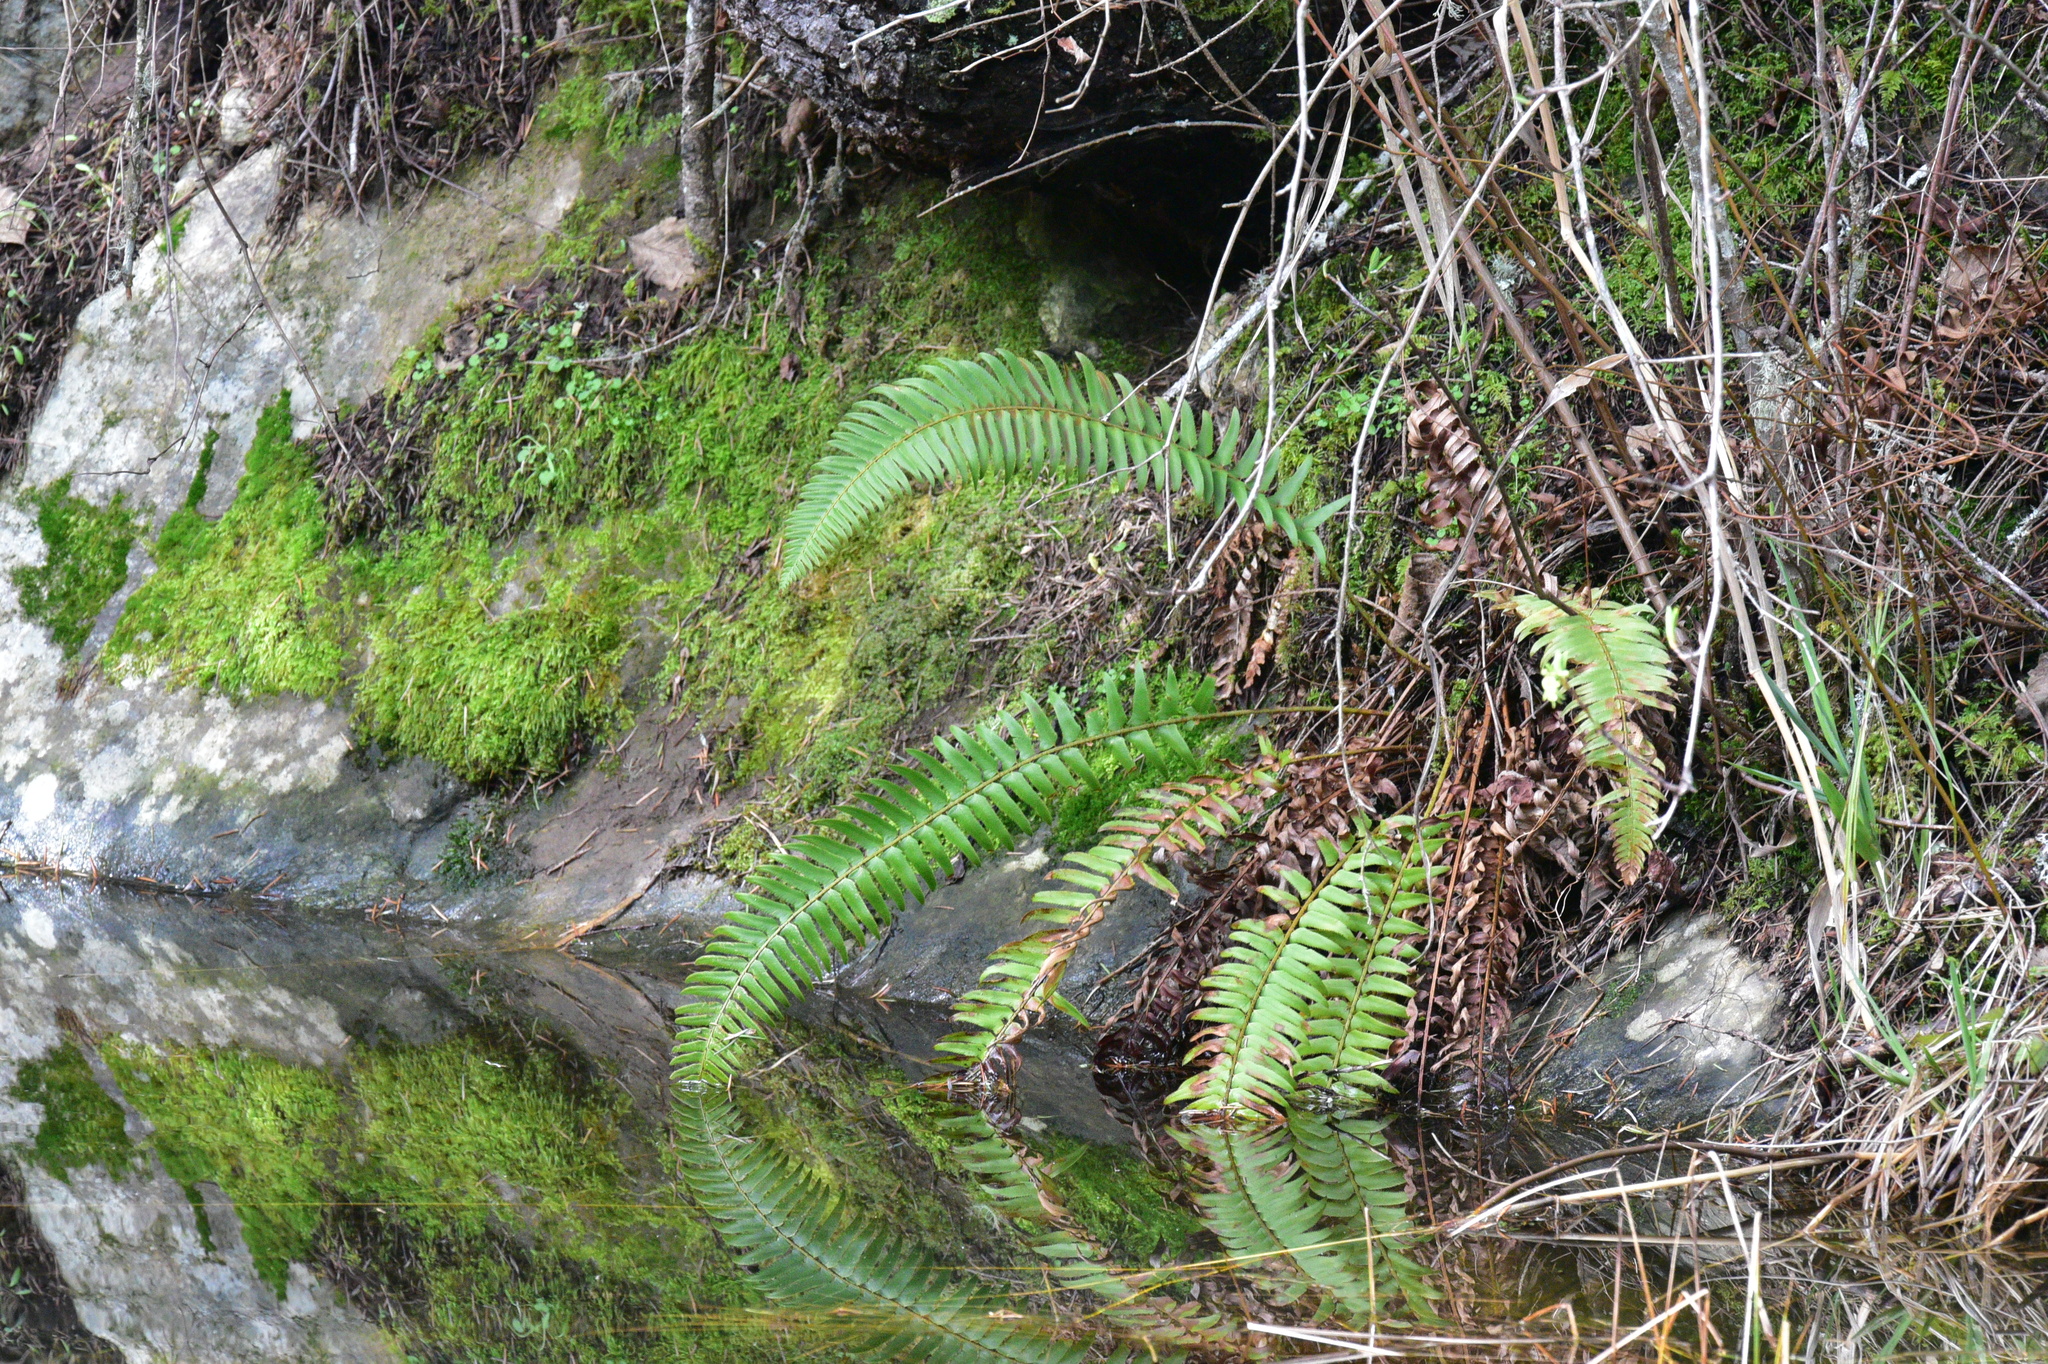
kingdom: Plantae
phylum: Tracheophyta
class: Polypodiopsida
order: Polypodiales
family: Dryopteridaceae
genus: Polystichum
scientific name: Polystichum munitum
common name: Western sword-fern
